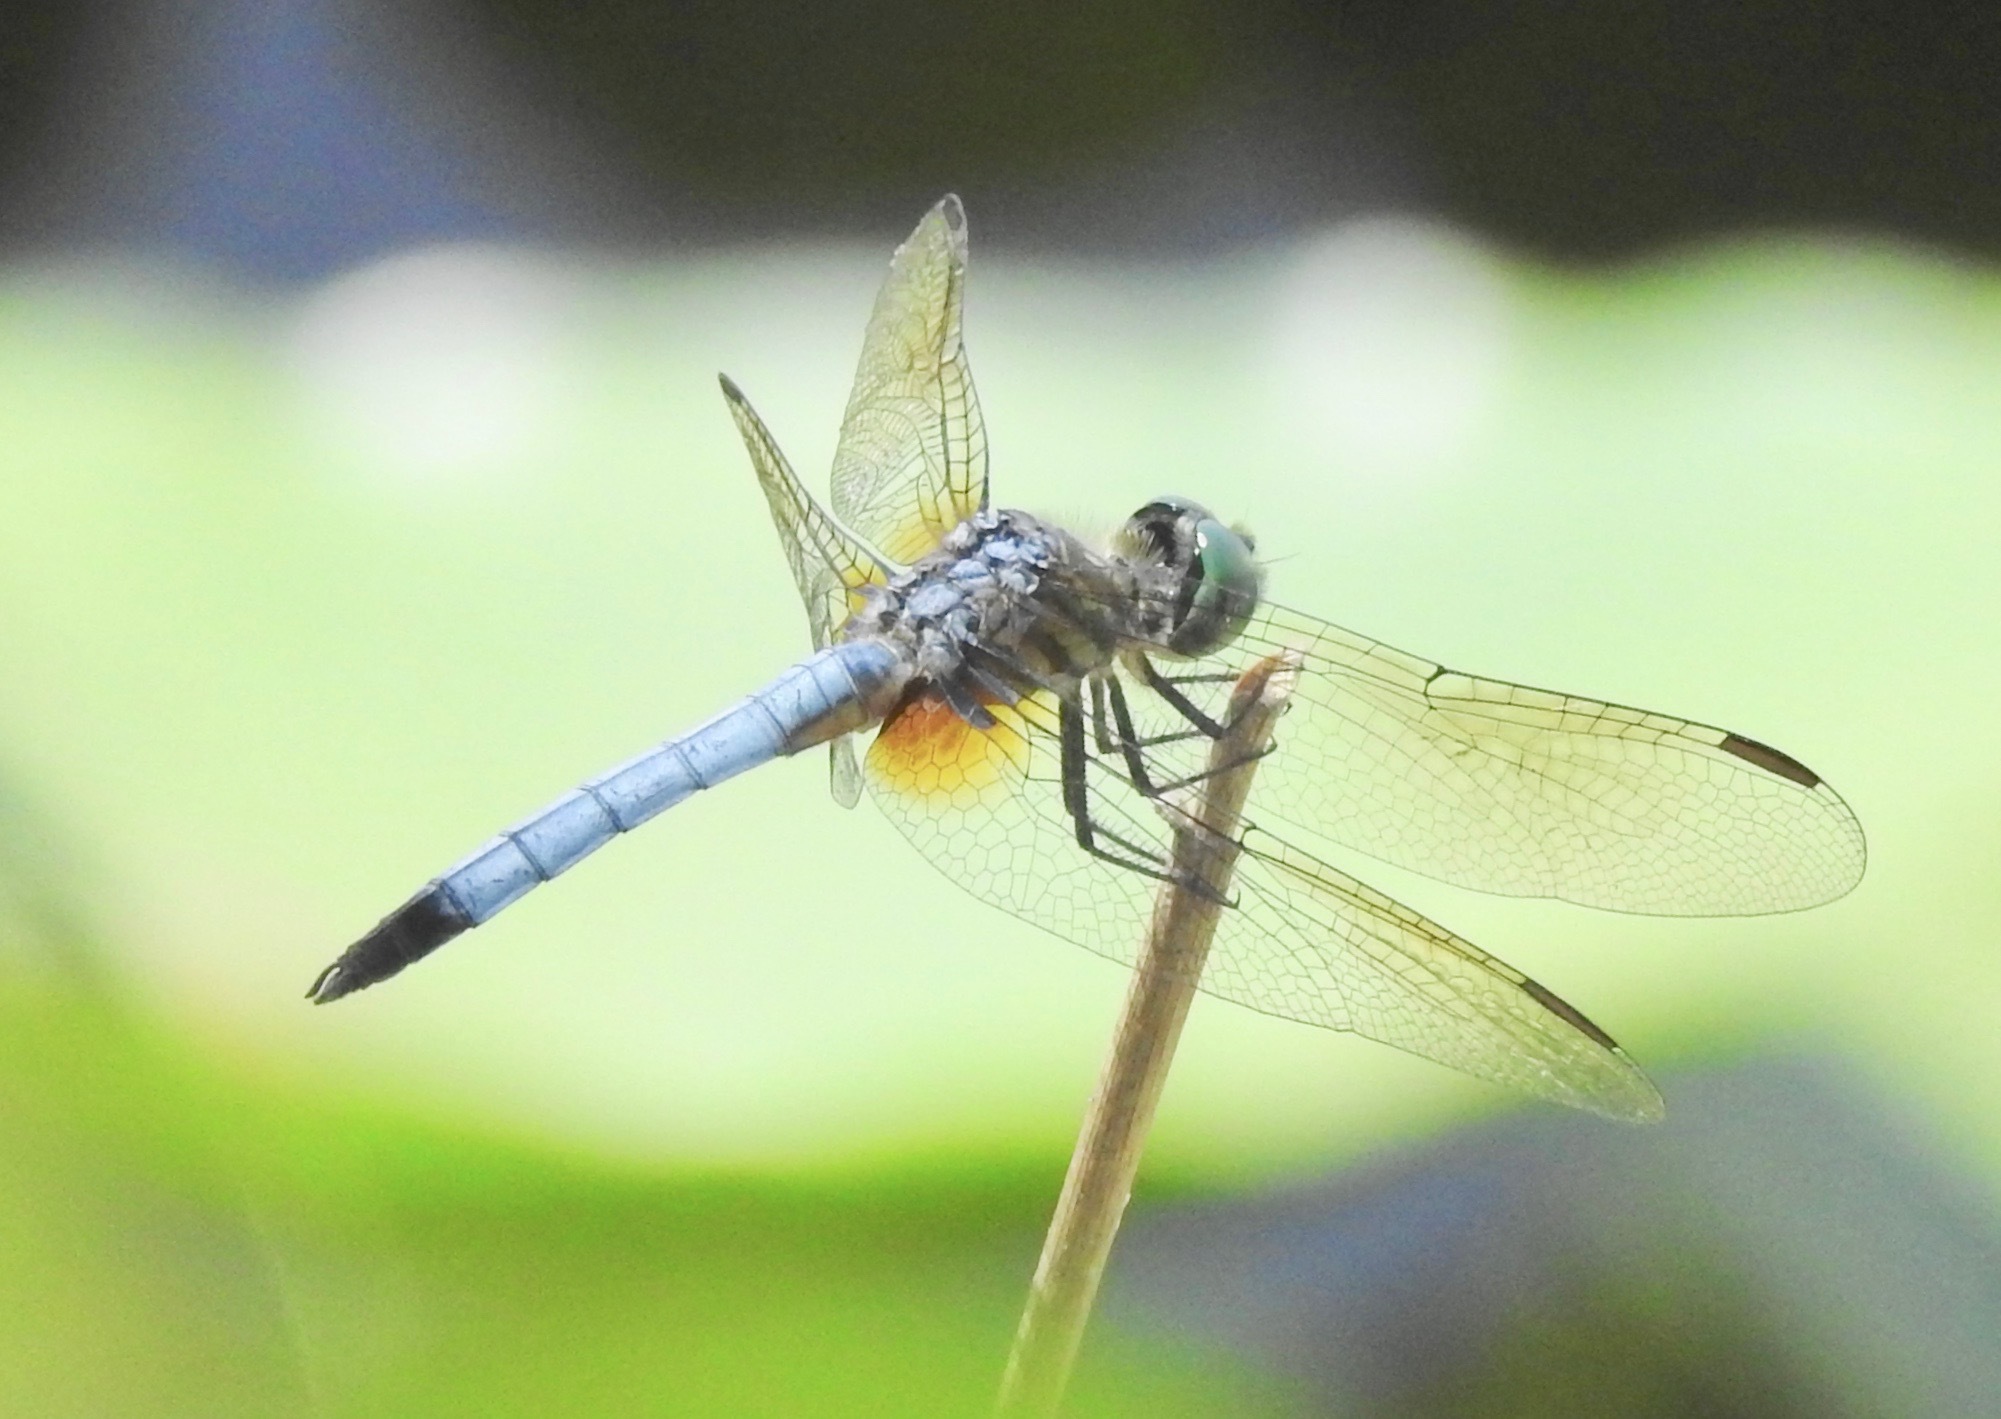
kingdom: Animalia
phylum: Arthropoda
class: Insecta
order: Odonata
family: Libellulidae
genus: Pachydiplax
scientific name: Pachydiplax longipennis
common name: Blue dasher
